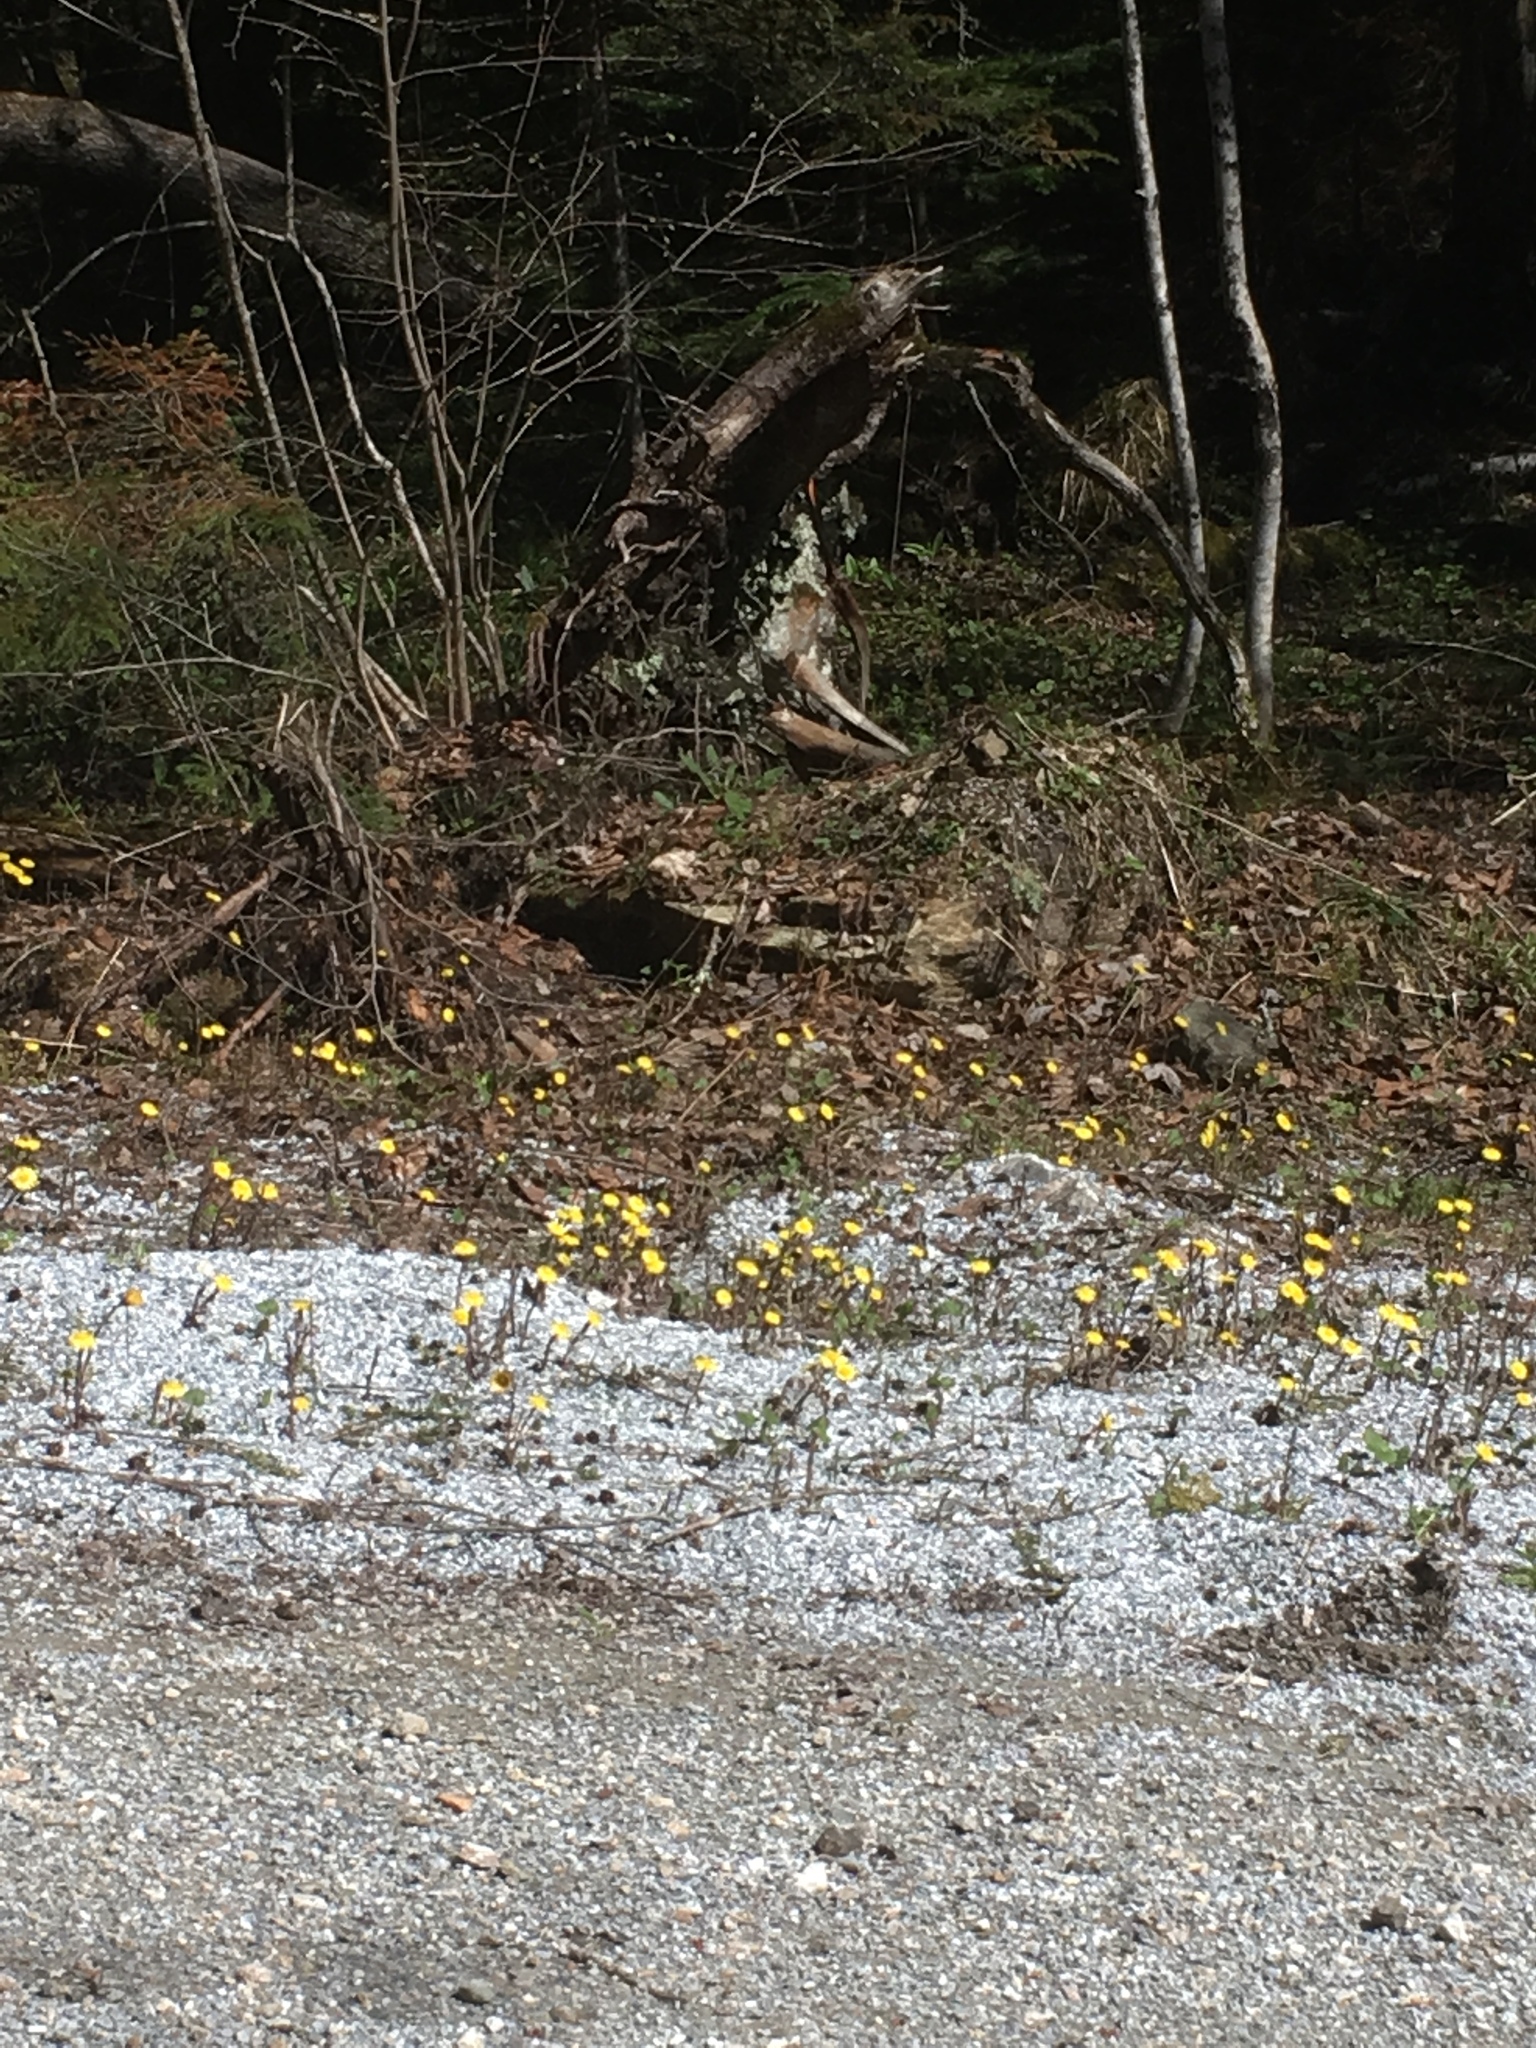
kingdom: Plantae
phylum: Tracheophyta
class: Magnoliopsida
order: Asterales
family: Asteraceae
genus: Tussilago
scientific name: Tussilago farfara
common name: Coltsfoot
